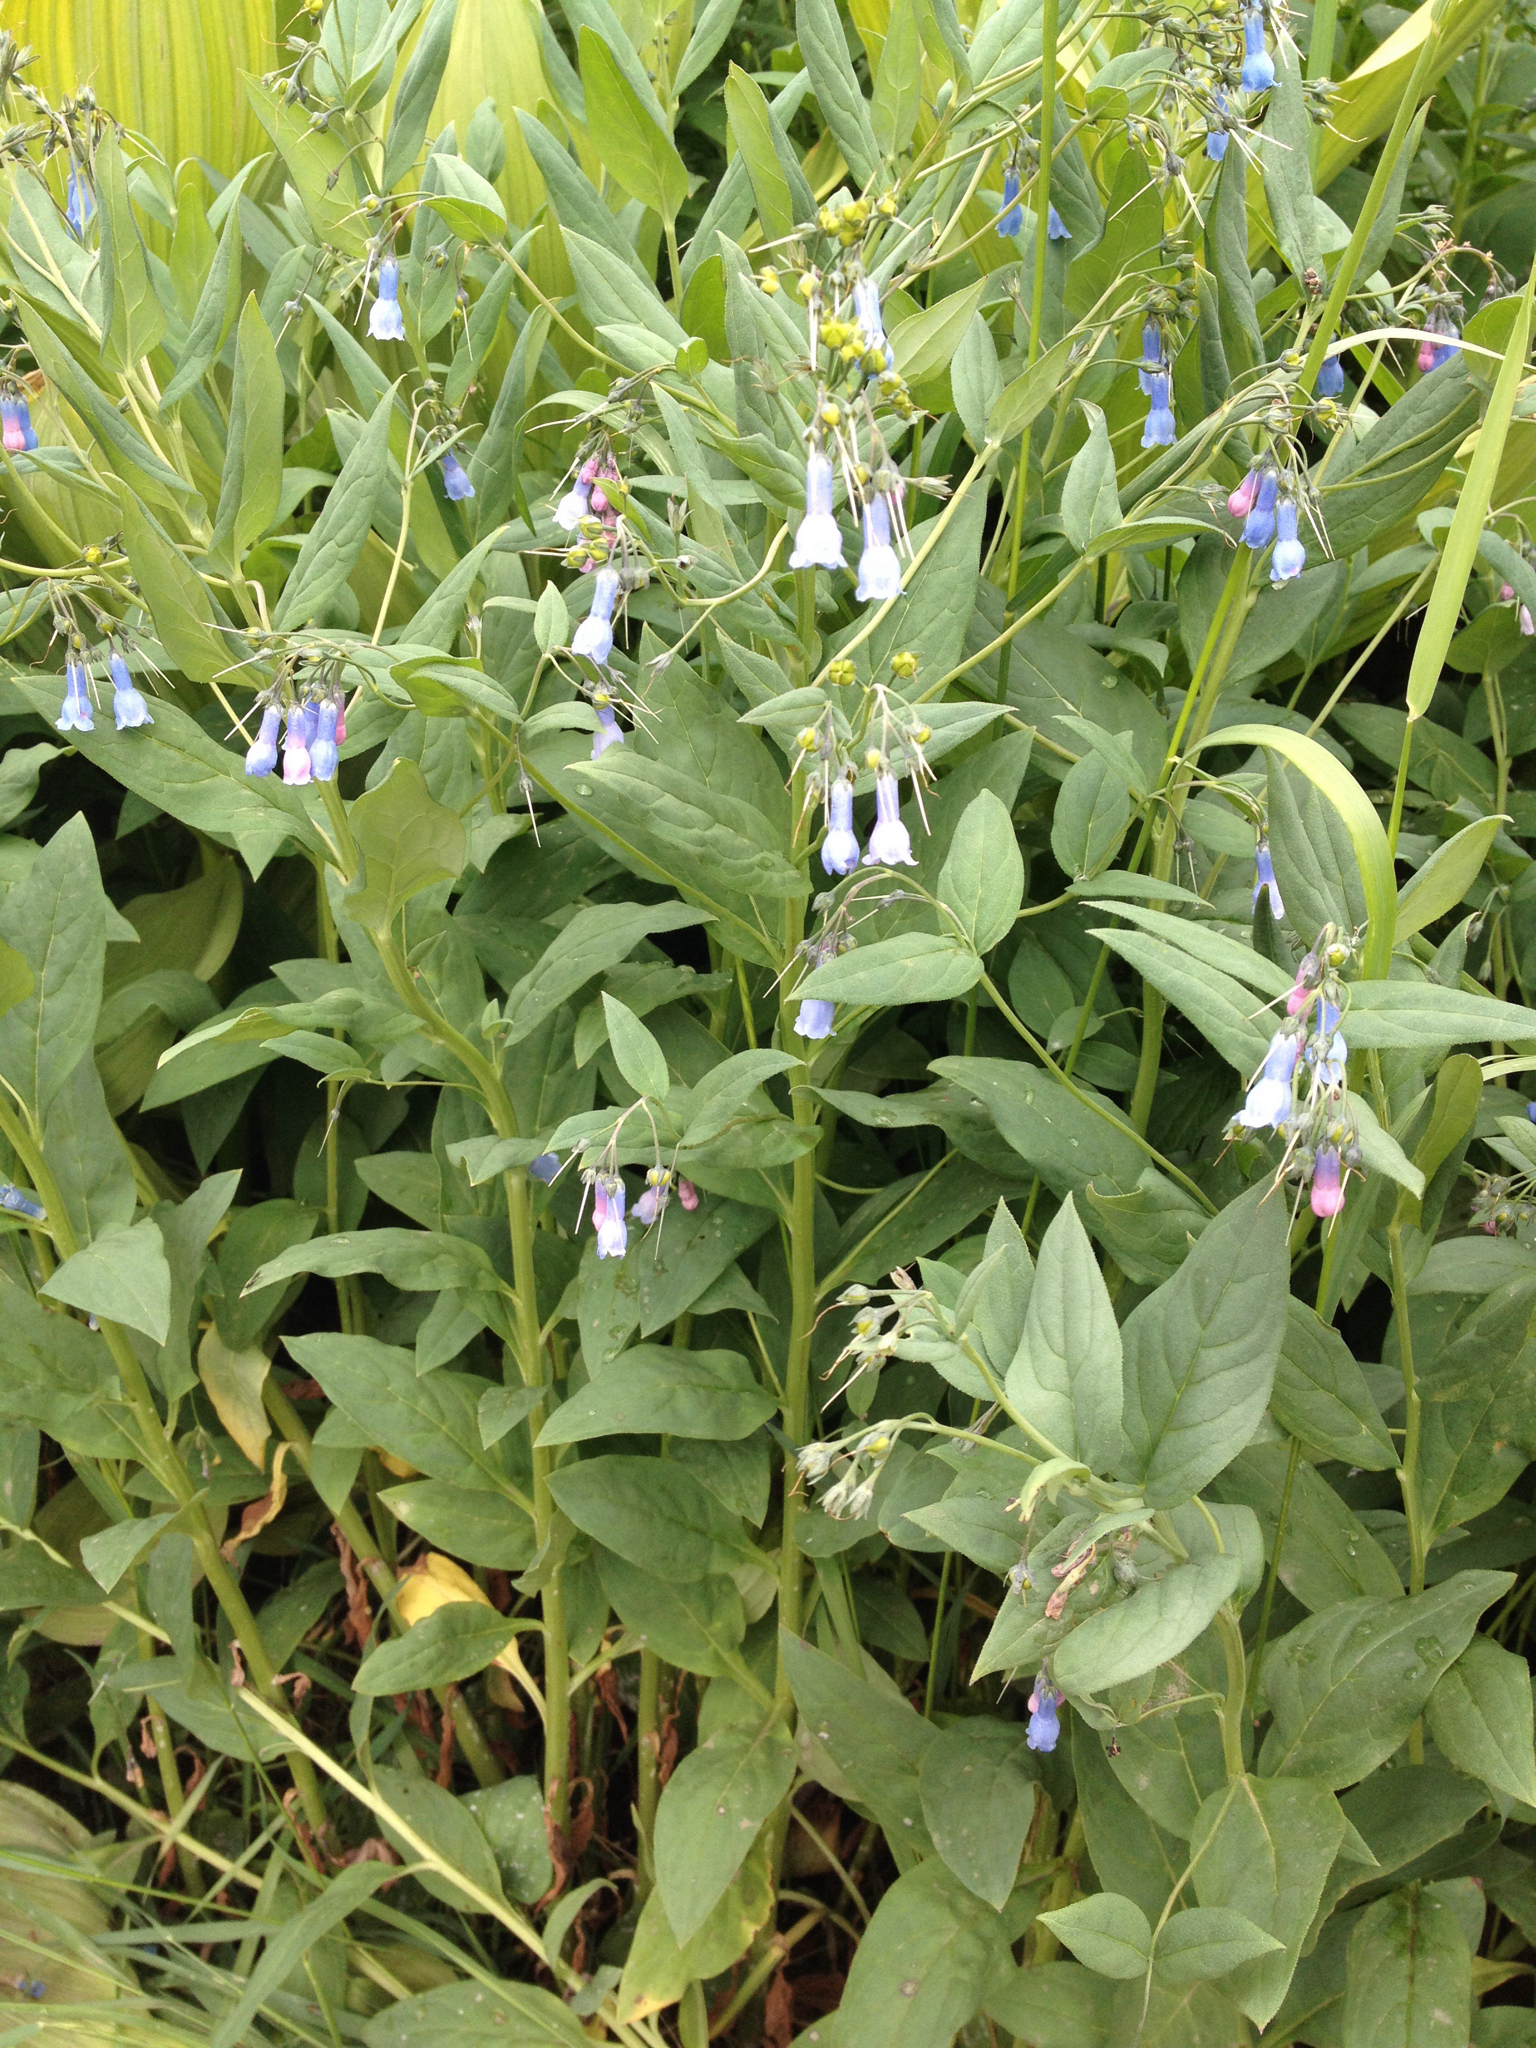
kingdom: Plantae
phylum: Tracheophyta
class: Magnoliopsida
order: Boraginales
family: Boraginaceae
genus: Mertensia
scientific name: Mertensia ciliata
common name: Tall chiming-bells
